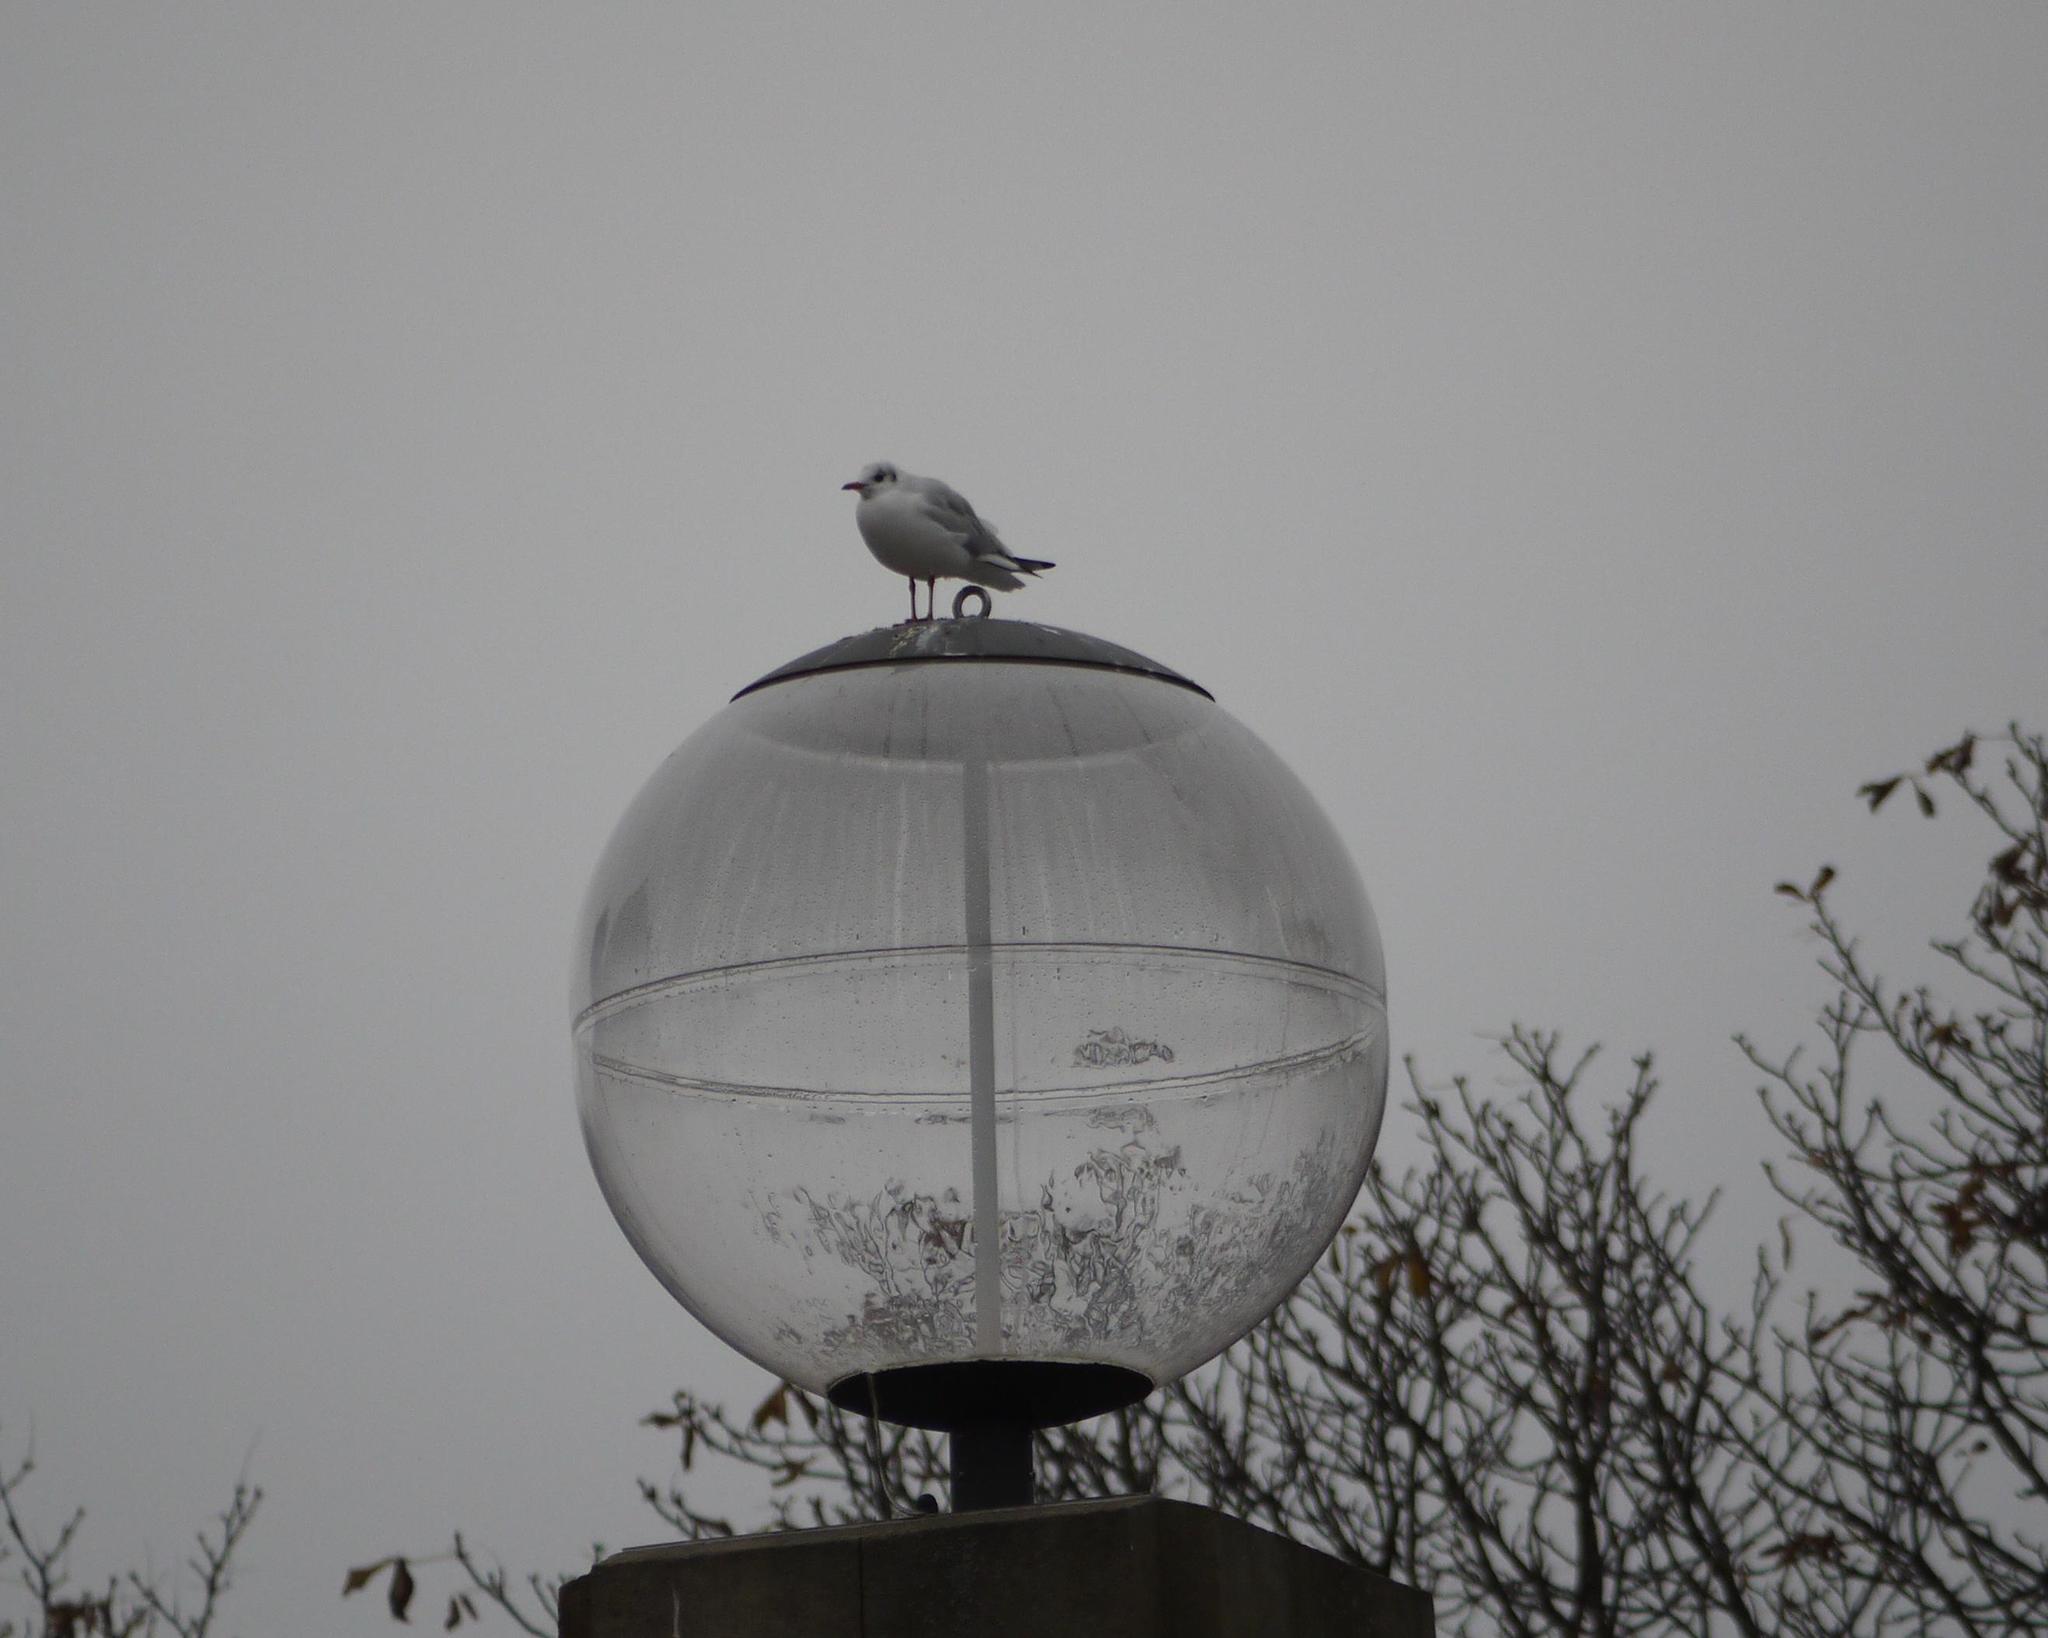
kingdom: Animalia
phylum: Chordata
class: Aves
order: Charadriiformes
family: Laridae
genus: Chroicocephalus
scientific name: Chroicocephalus ridibundus
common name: Black-headed gull
